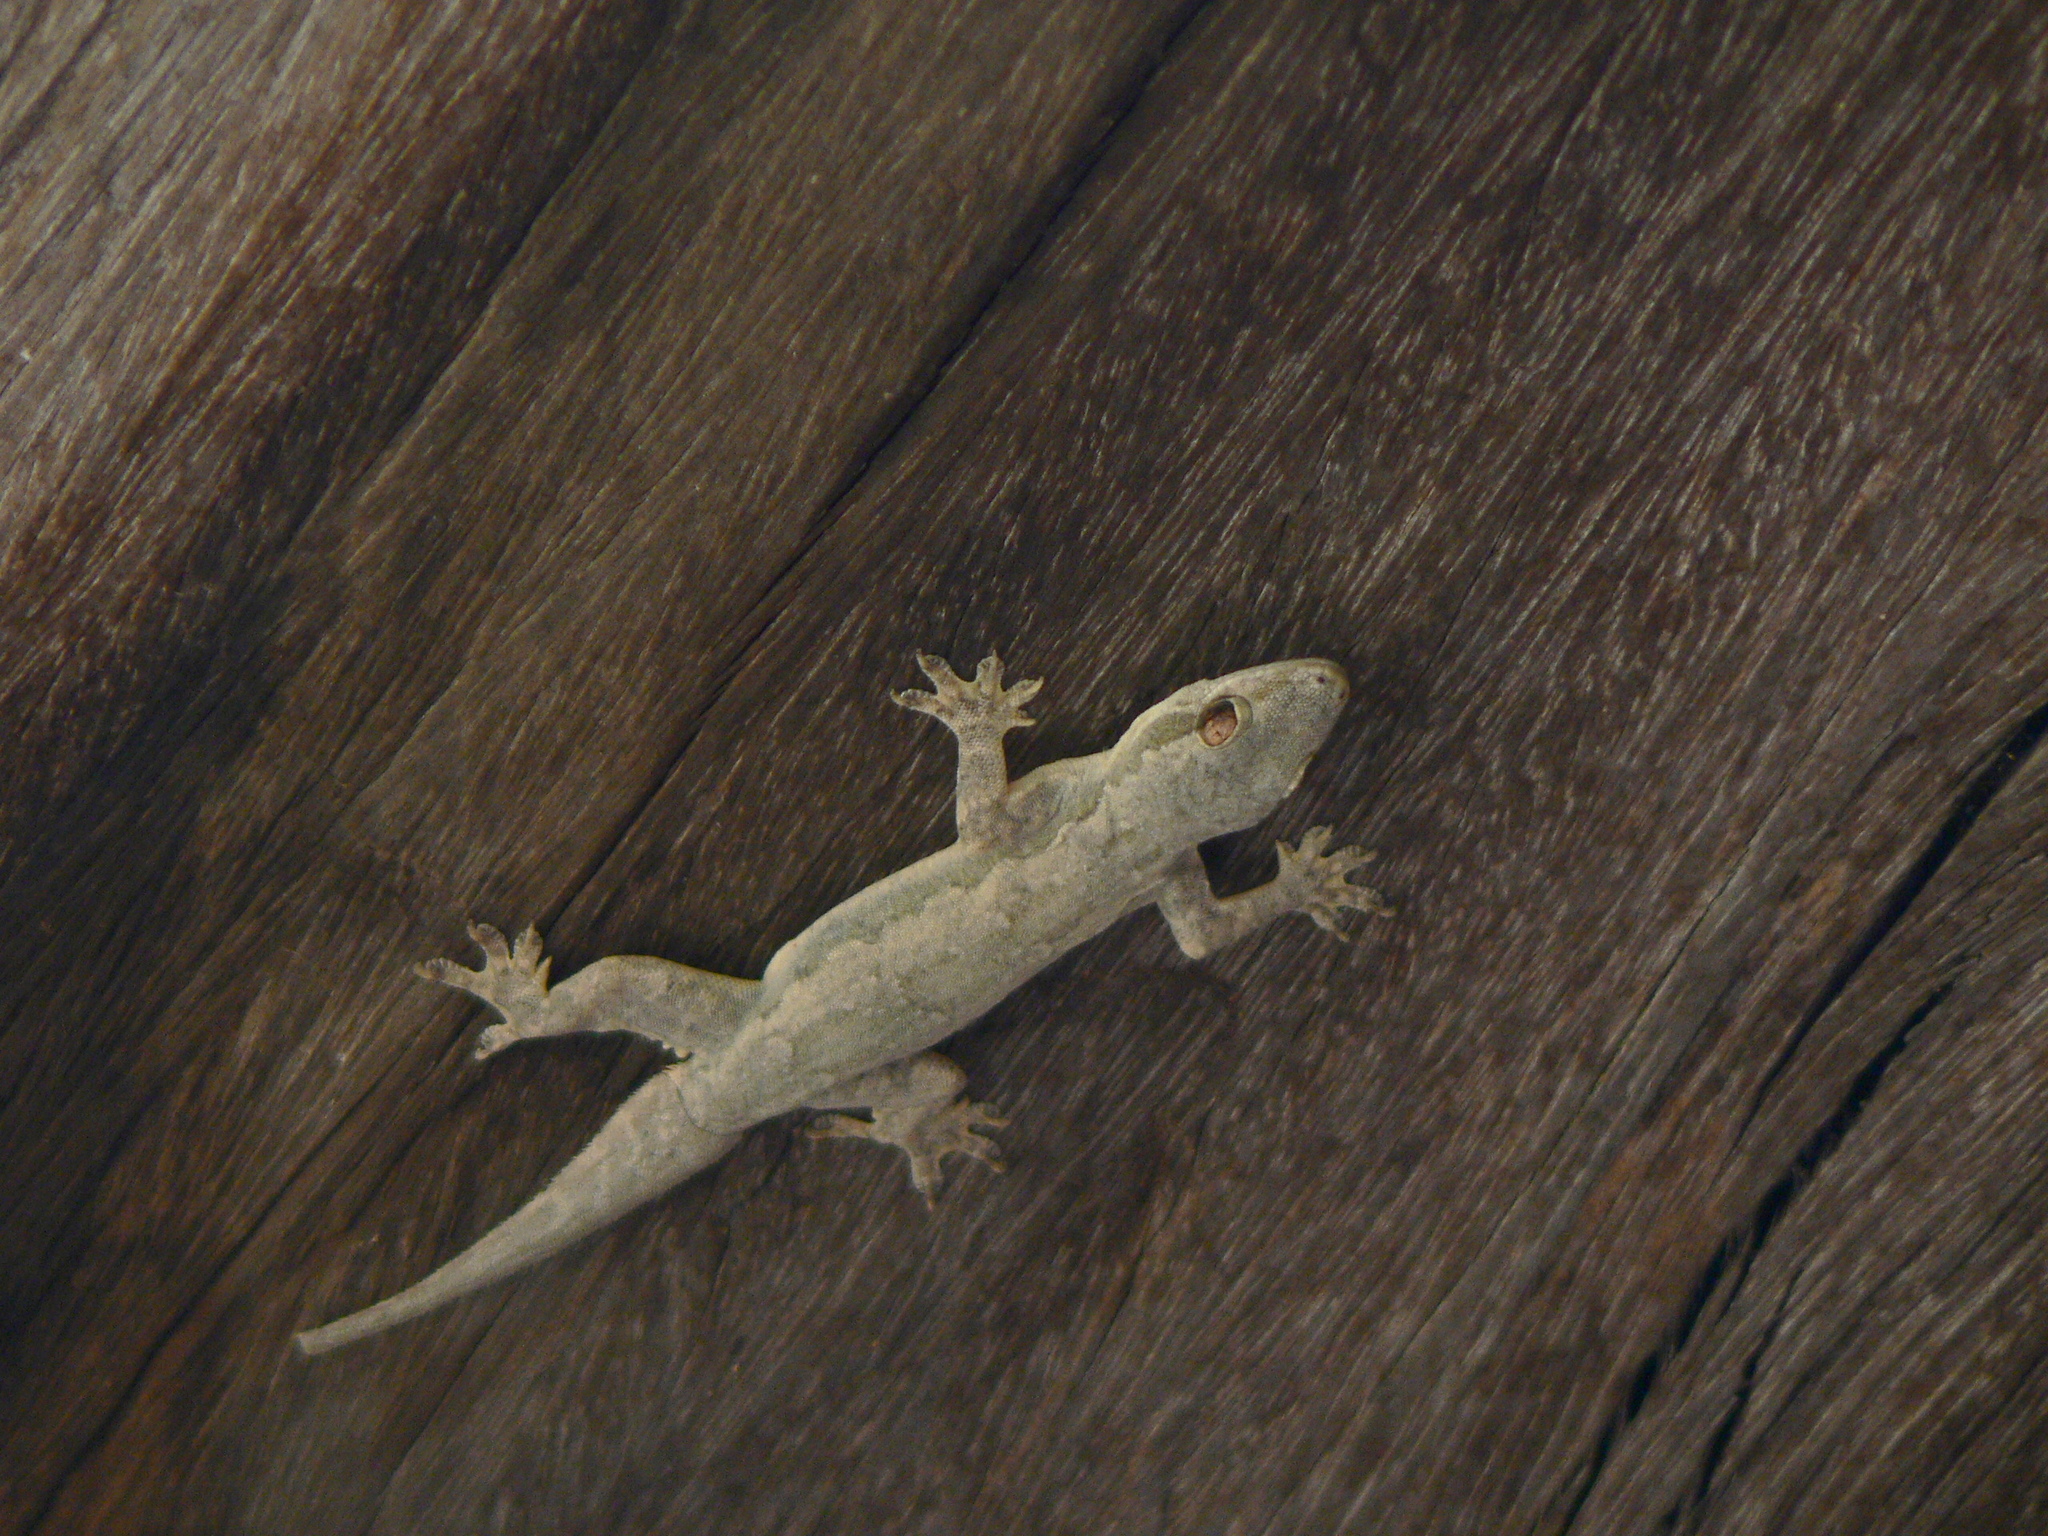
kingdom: Animalia
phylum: Chordata
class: Squamata
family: Gekkonidae
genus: Hemidactylus
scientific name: Hemidactylus platyurus
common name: Flat-tailed house gecko
